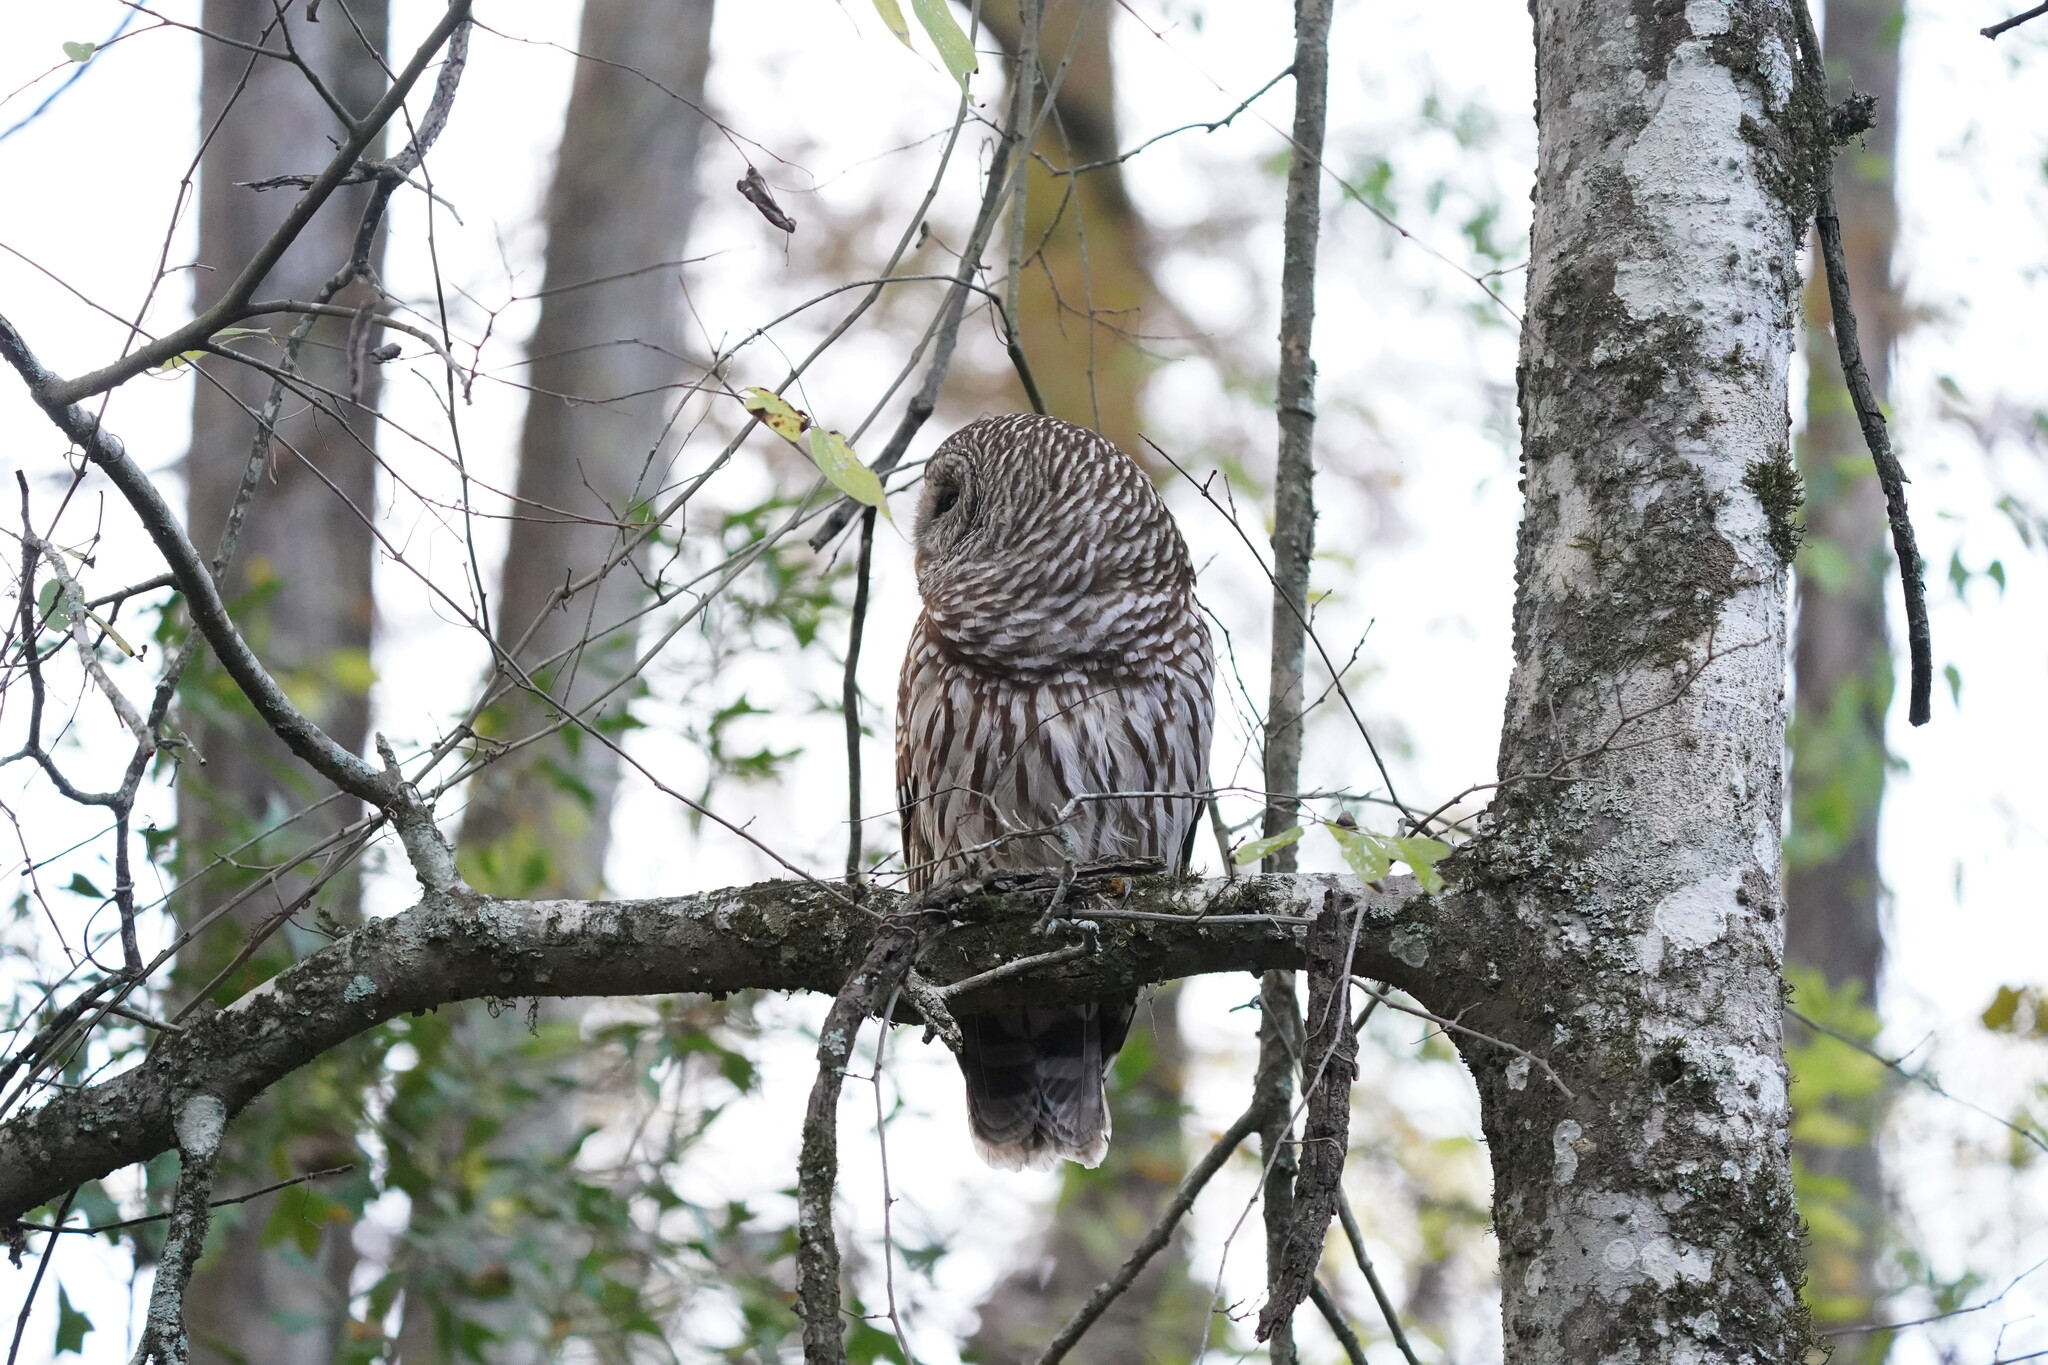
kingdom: Animalia
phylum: Chordata
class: Aves
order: Strigiformes
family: Strigidae
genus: Strix
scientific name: Strix varia
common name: Barred owl
